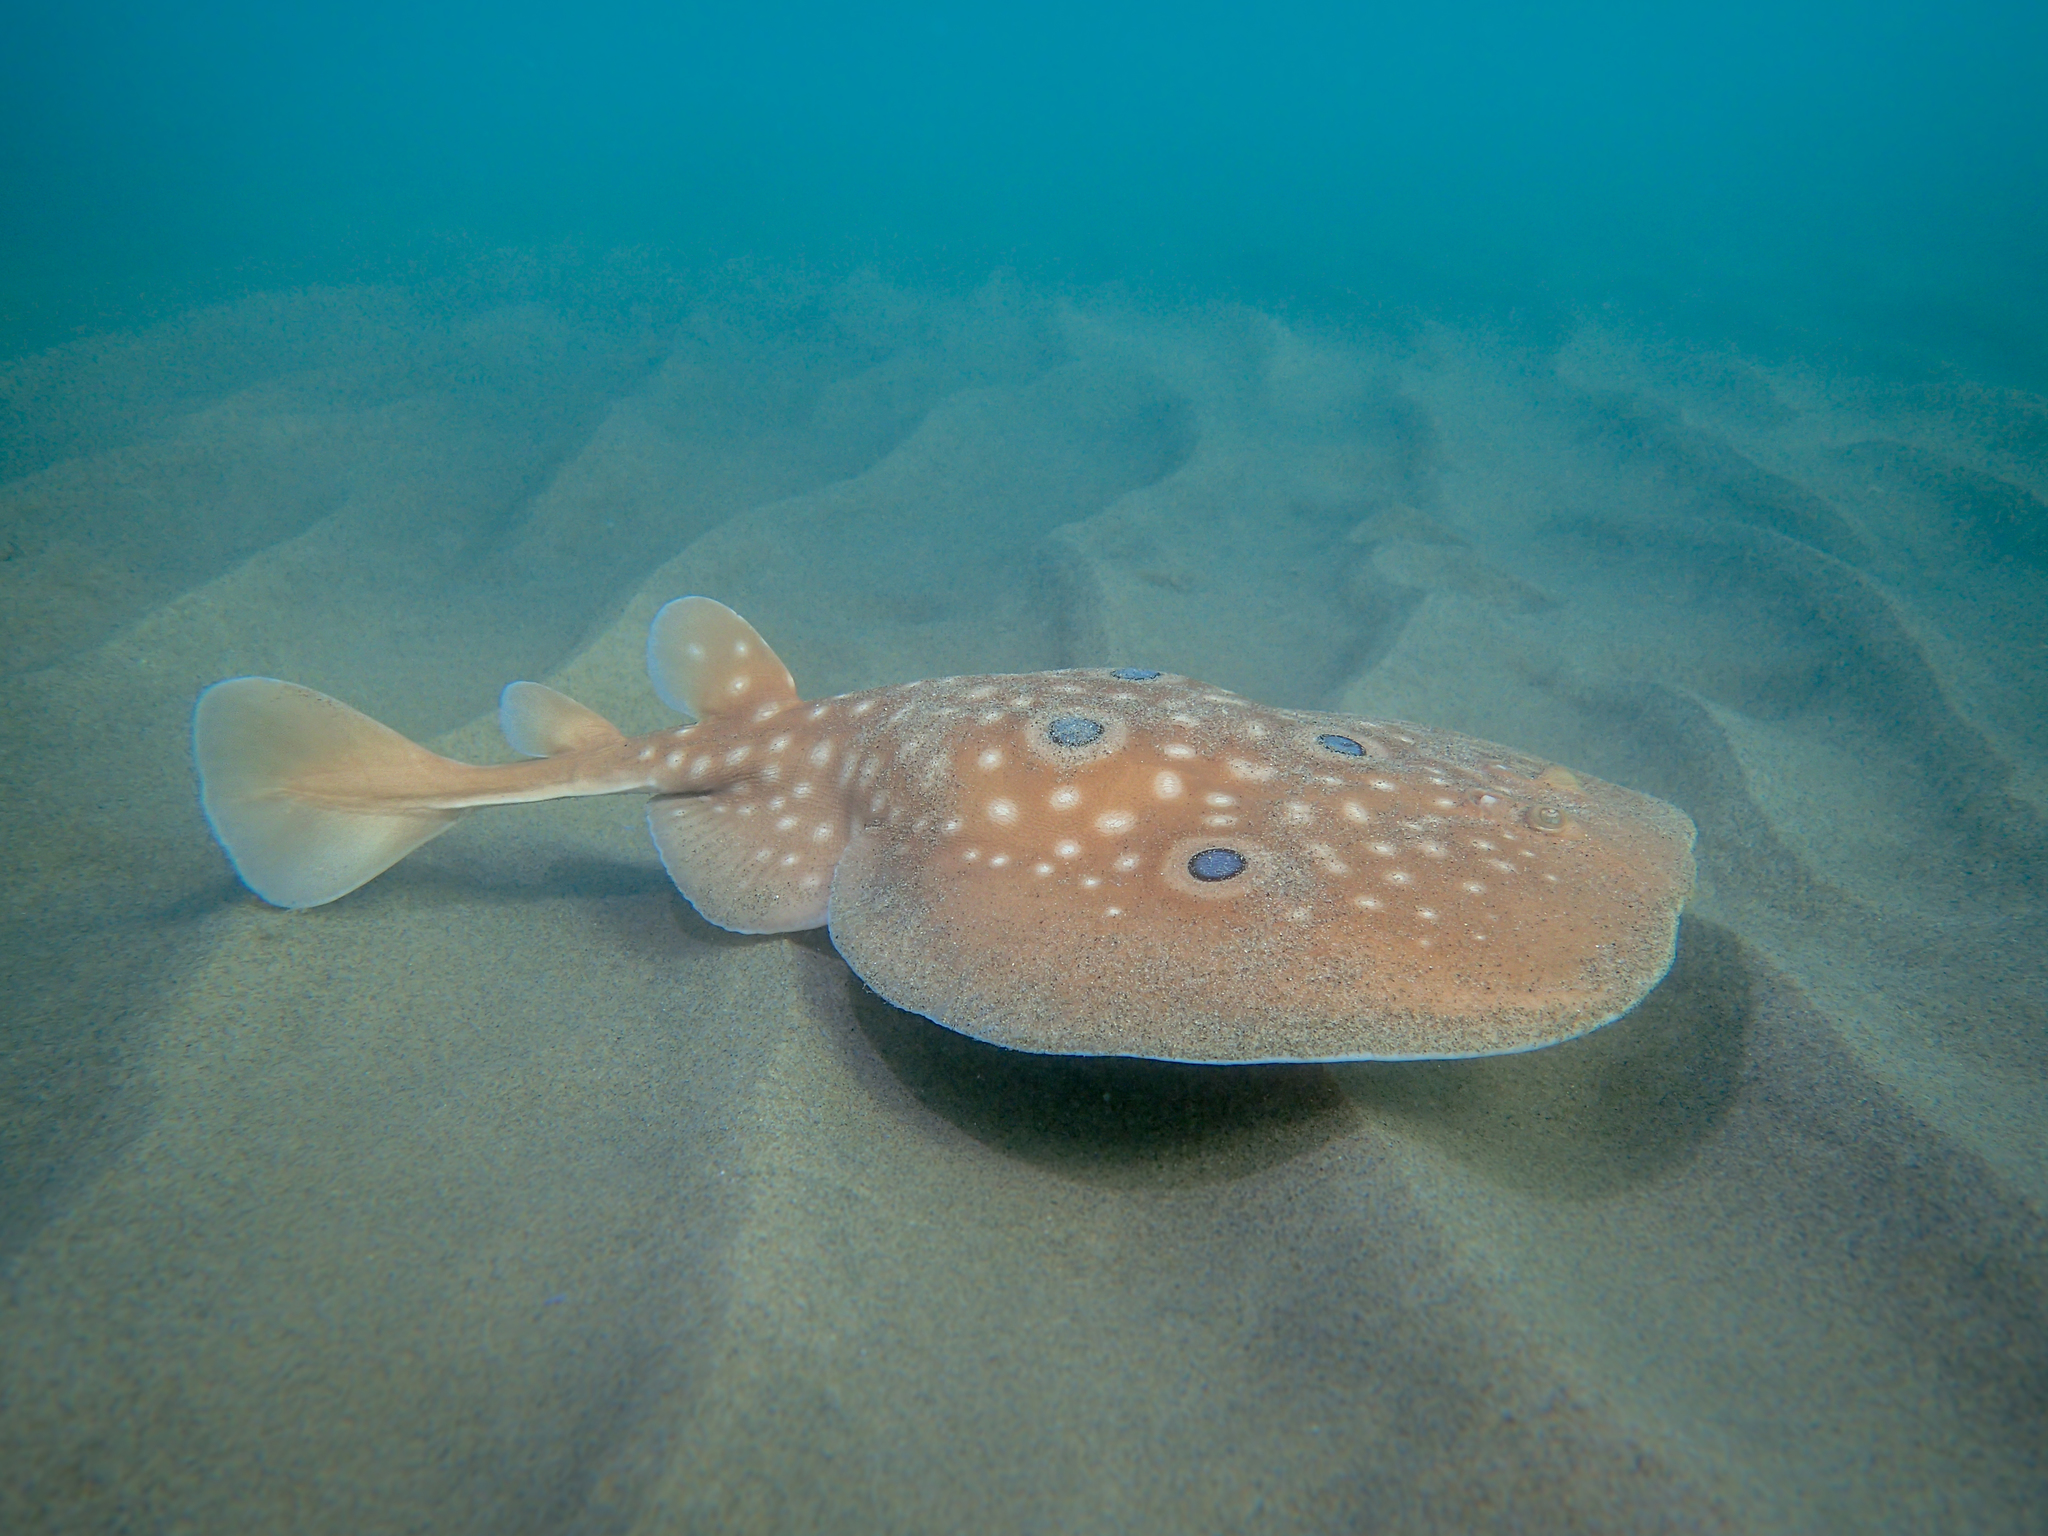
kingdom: Animalia
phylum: Chordata
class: Elasmobranchii
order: Torpediniformes
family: Torpedinidae
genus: Torpedo
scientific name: Torpedo torpedo
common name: Common torpedo
